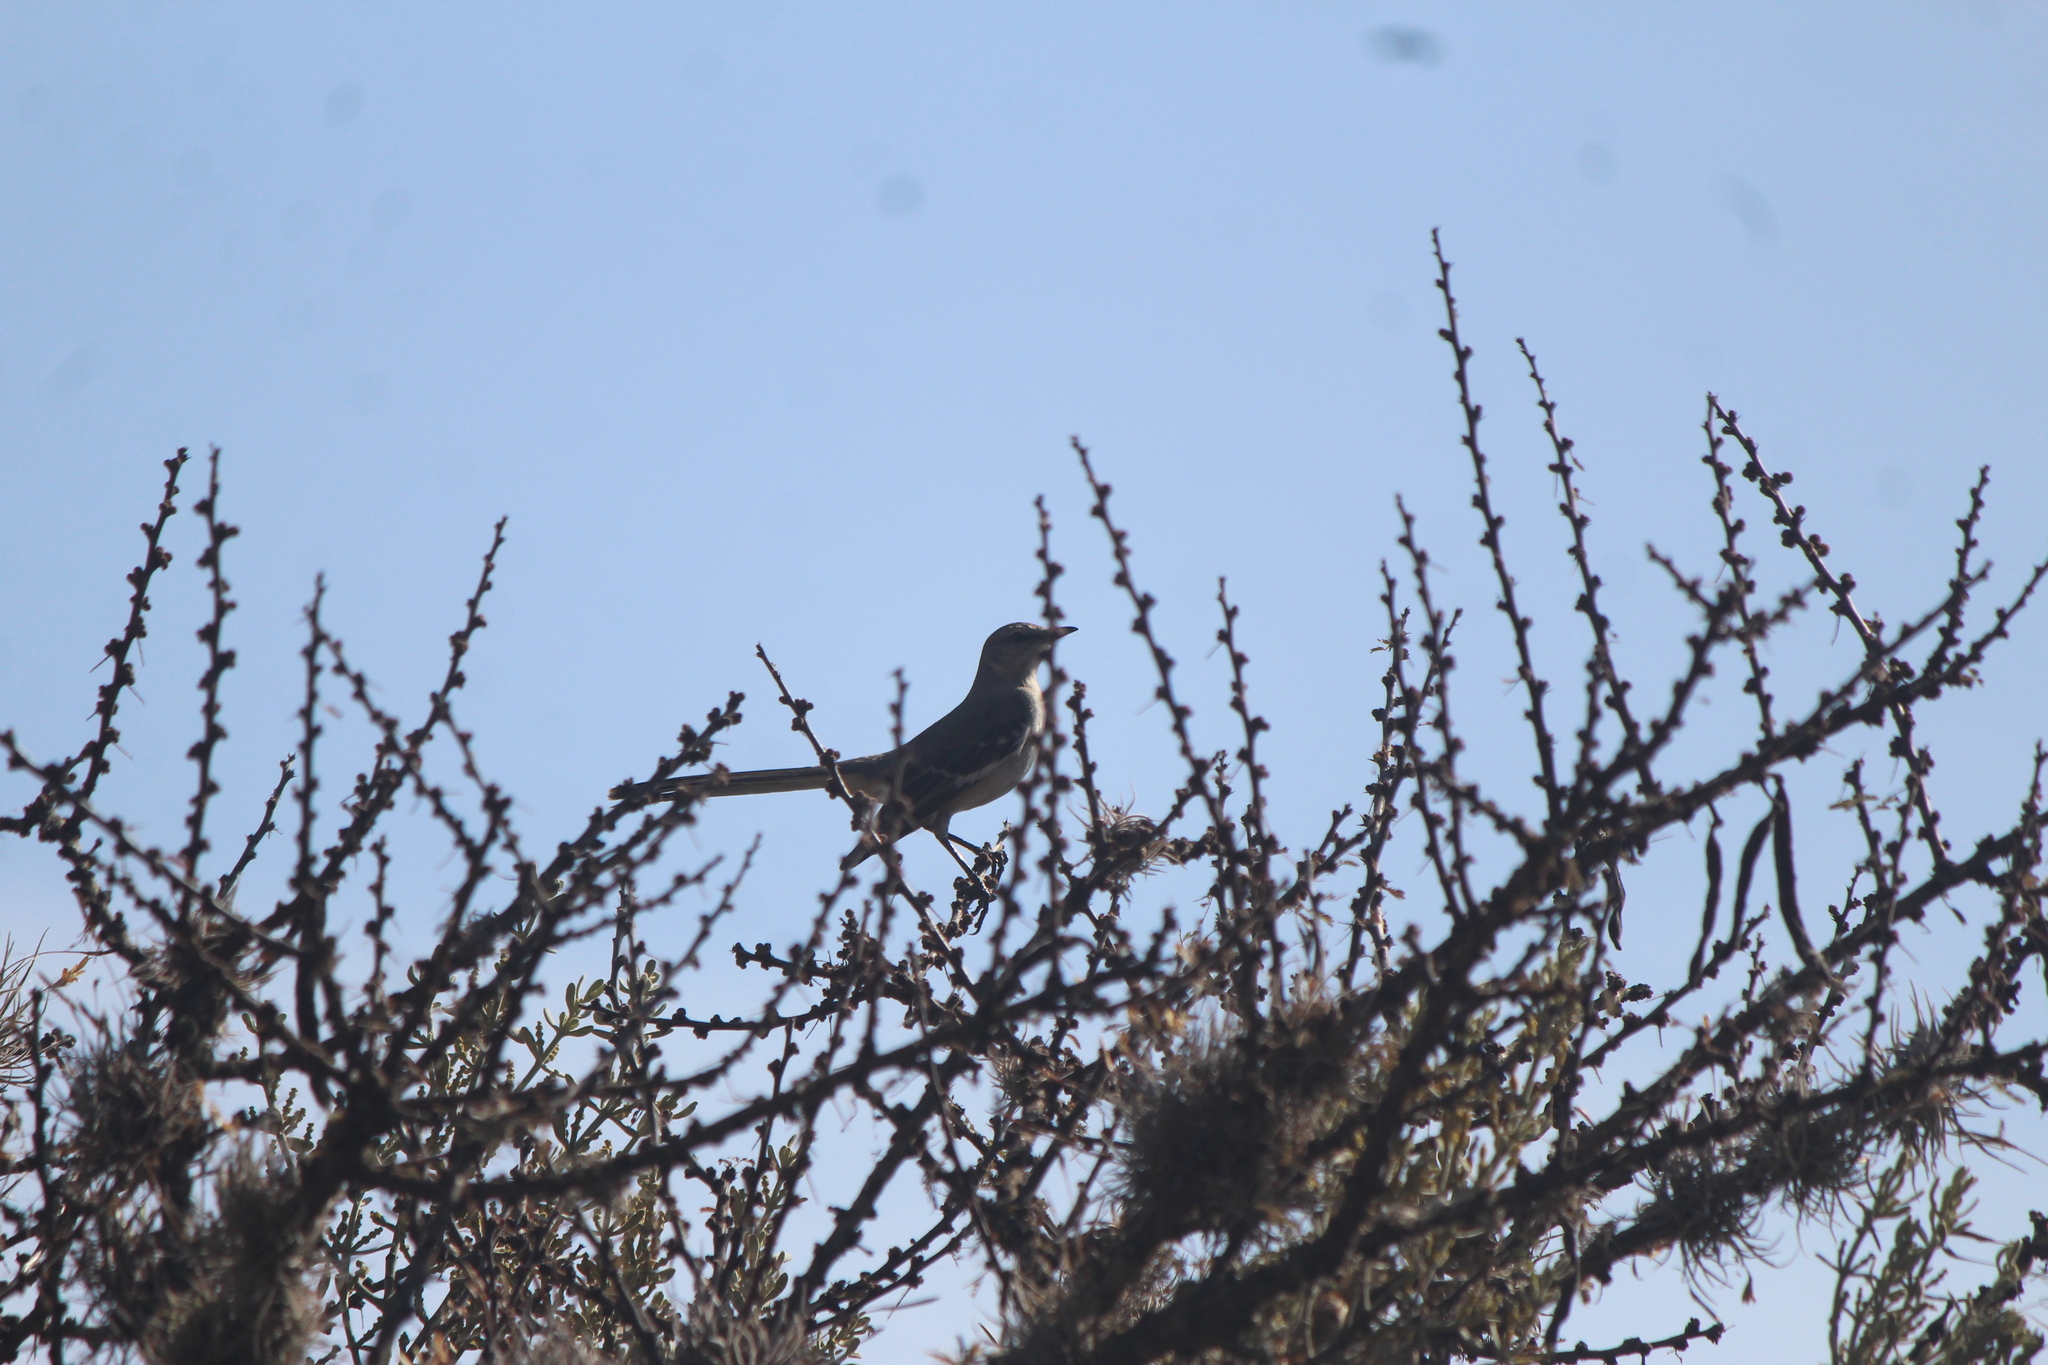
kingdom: Animalia
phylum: Chordata
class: Aves
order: Passeriformes
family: Mimidae
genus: Mimus
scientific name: Mimus polyglottos
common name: Northern mockingbird
